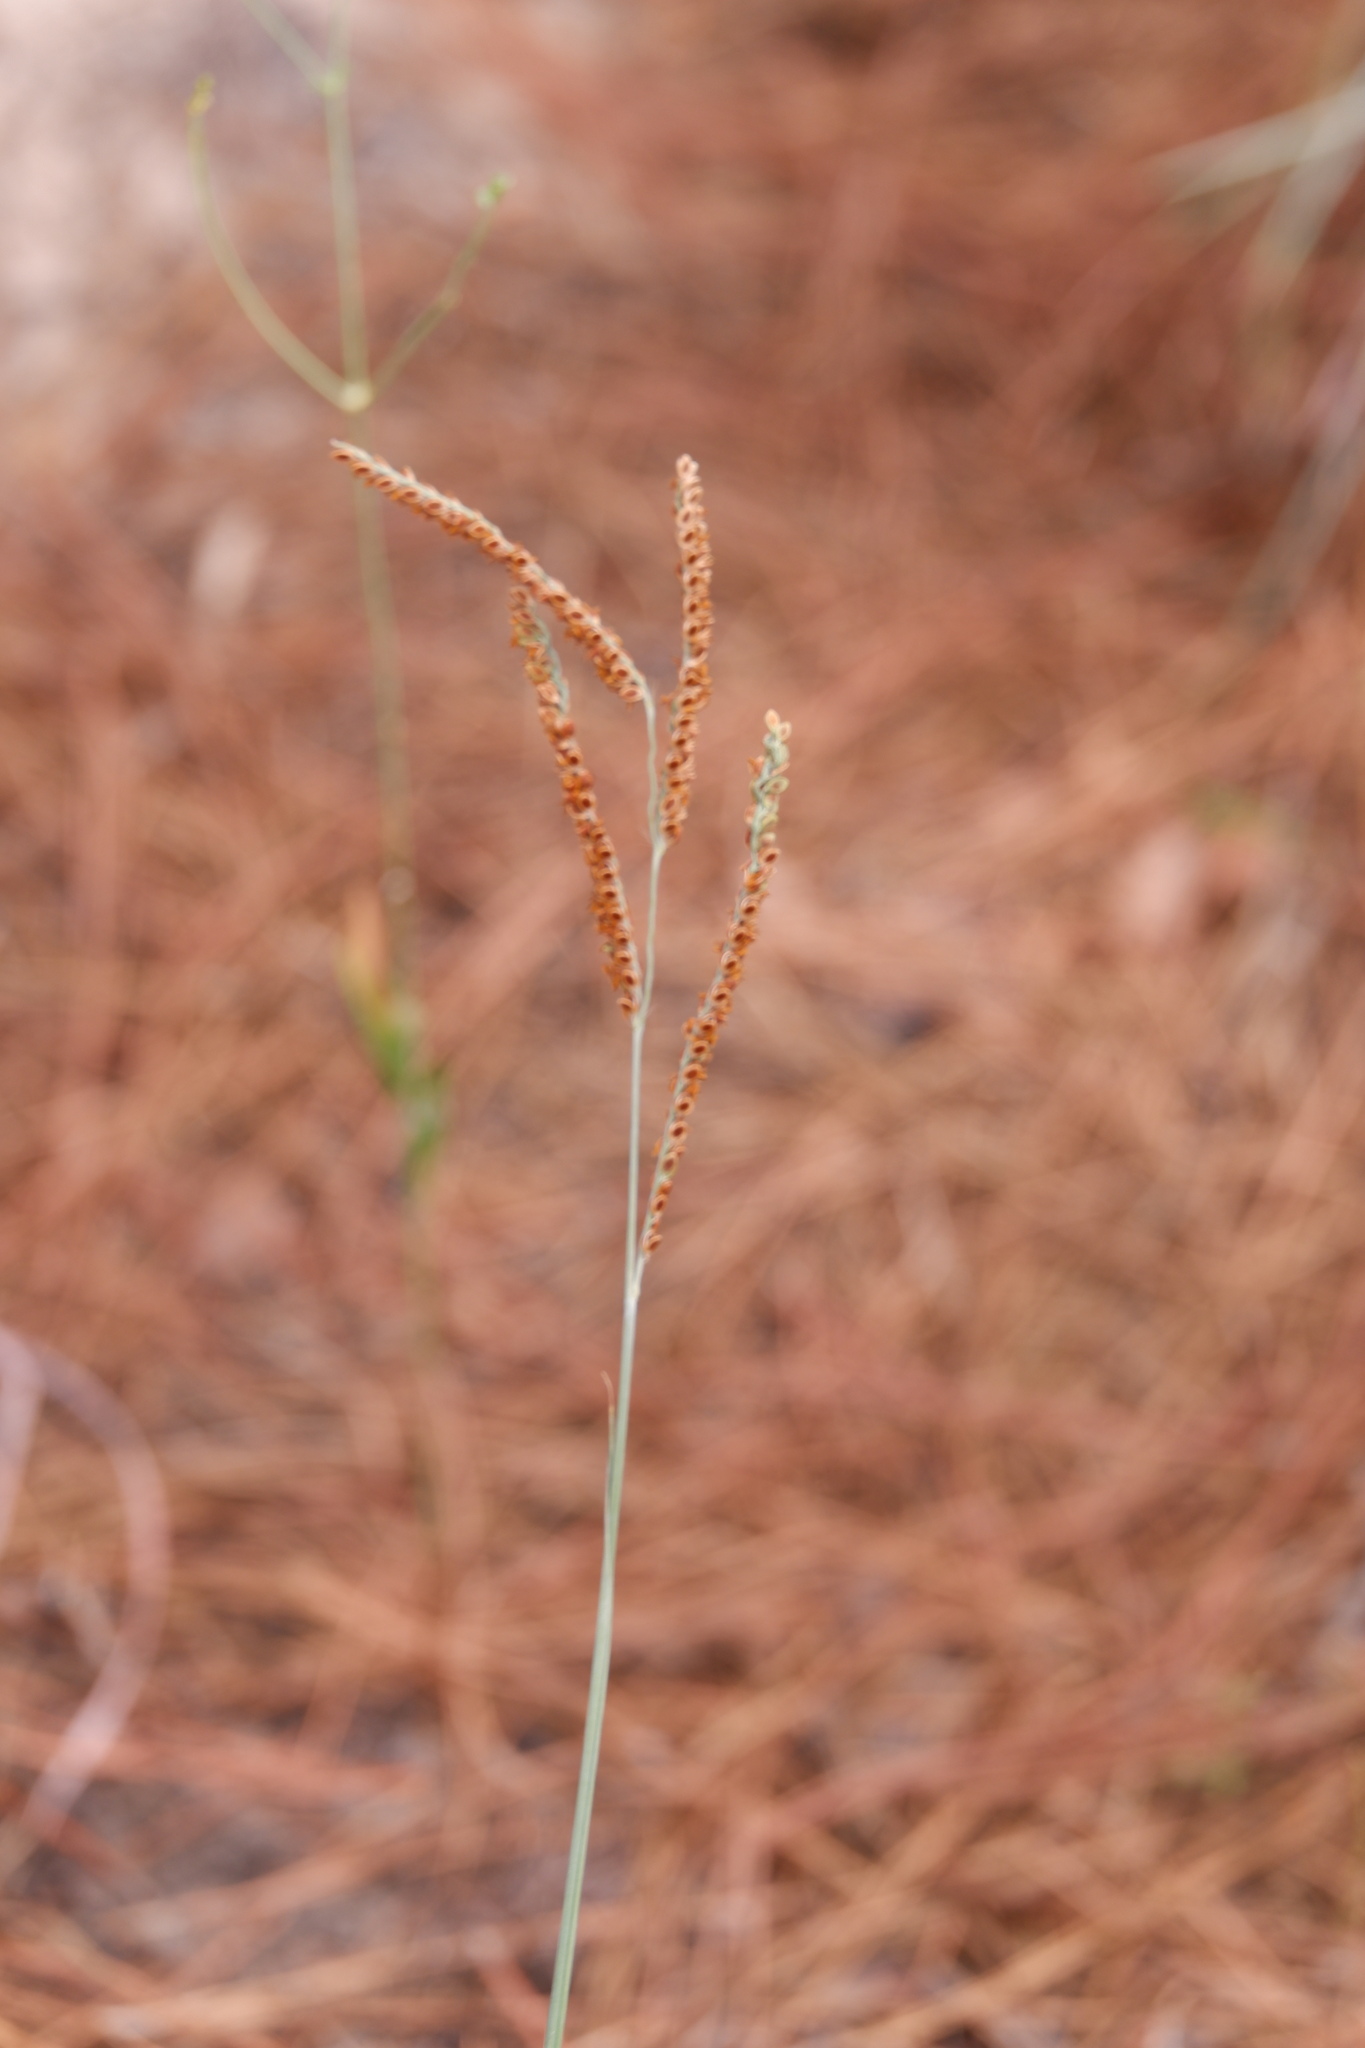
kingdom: Plantae
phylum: Tracheophyta
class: Liliopsida
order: Poales
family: Poaceae
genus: Paspalum
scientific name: Paspalum plicatulum
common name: Top paspalum
